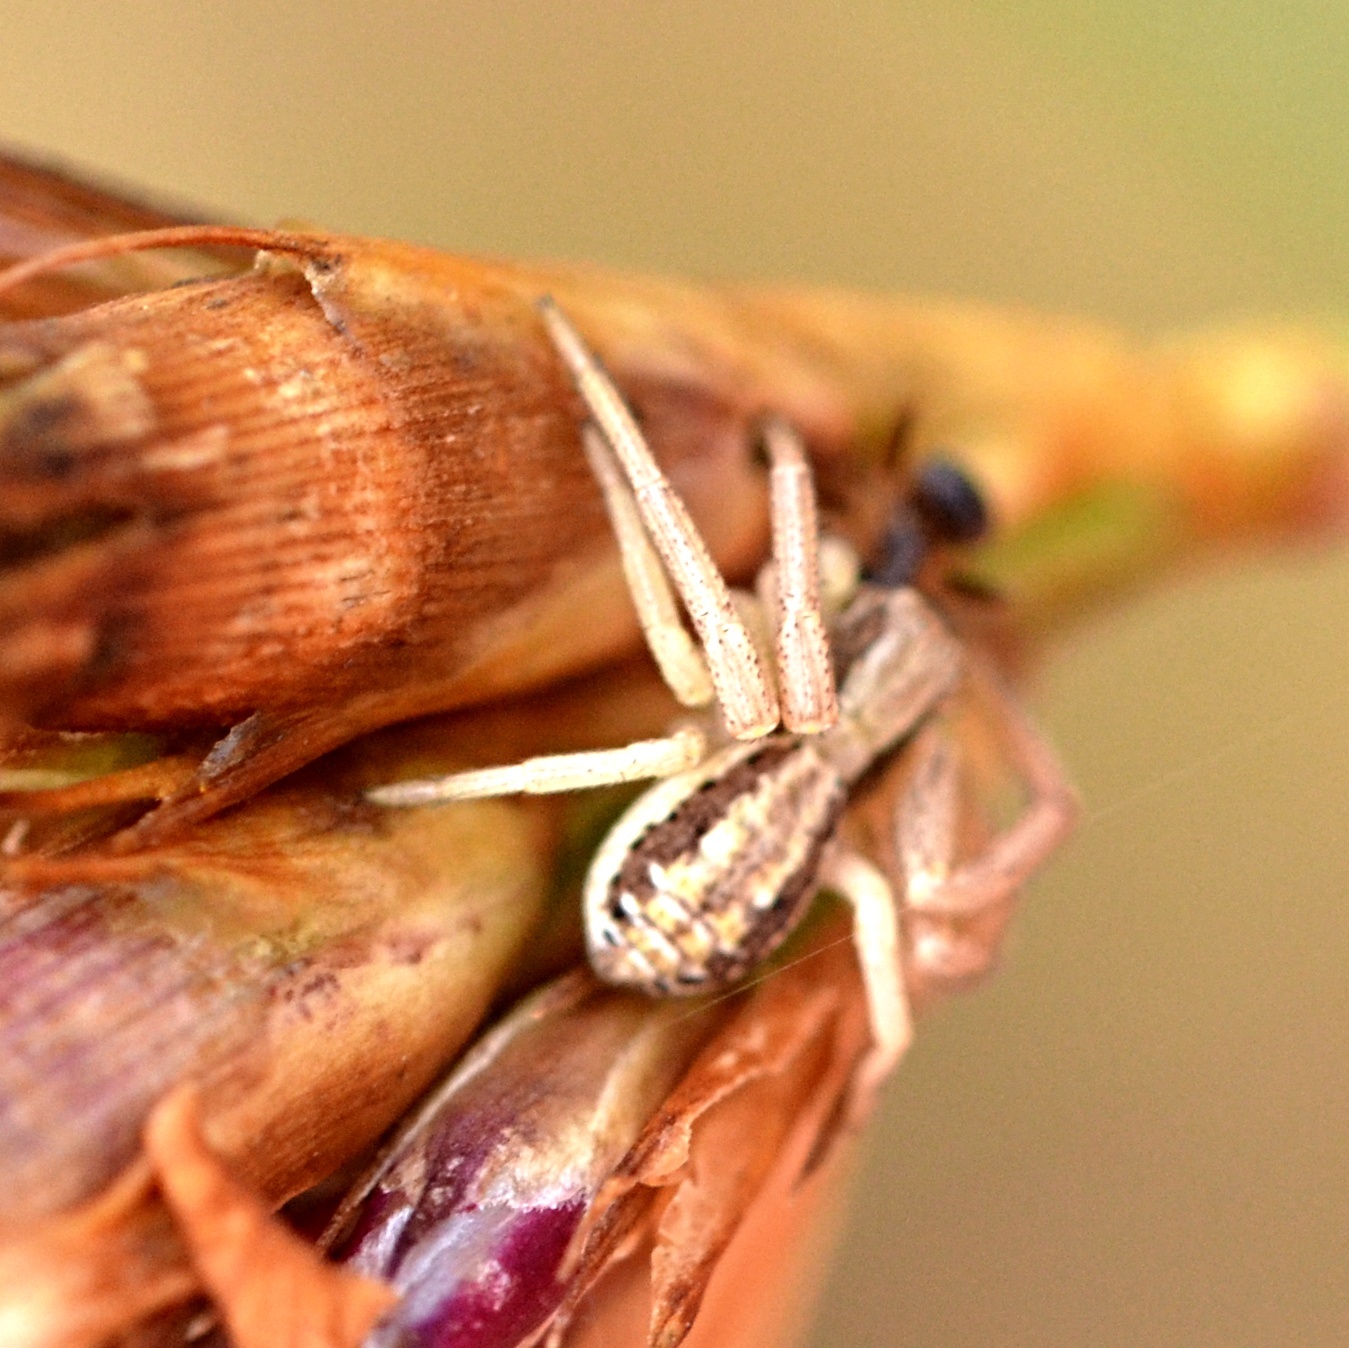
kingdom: Animalia
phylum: Arthropoda
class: Arachnida
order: Araneae
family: Thomisidae
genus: Spiracme
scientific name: Spiracme striatipes
